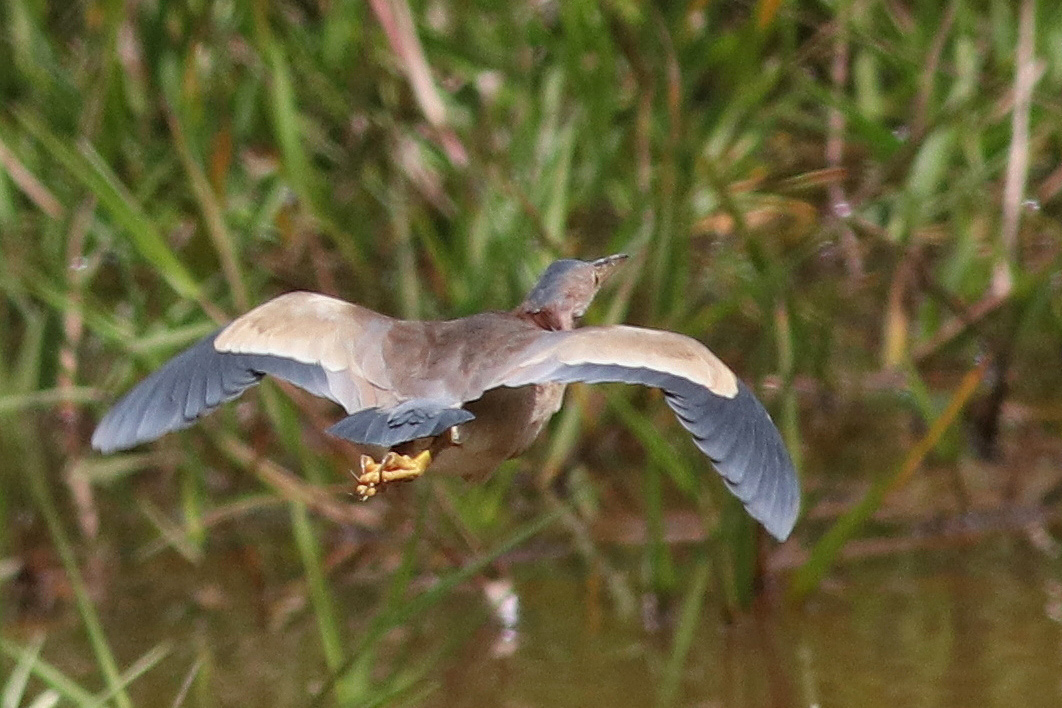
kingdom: Animalia
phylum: Chordata
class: Aves
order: Pelecaniformes
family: Ardeidae
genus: Ixobrychus
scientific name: Ixobrychus sinensis
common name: Yellow bittern
